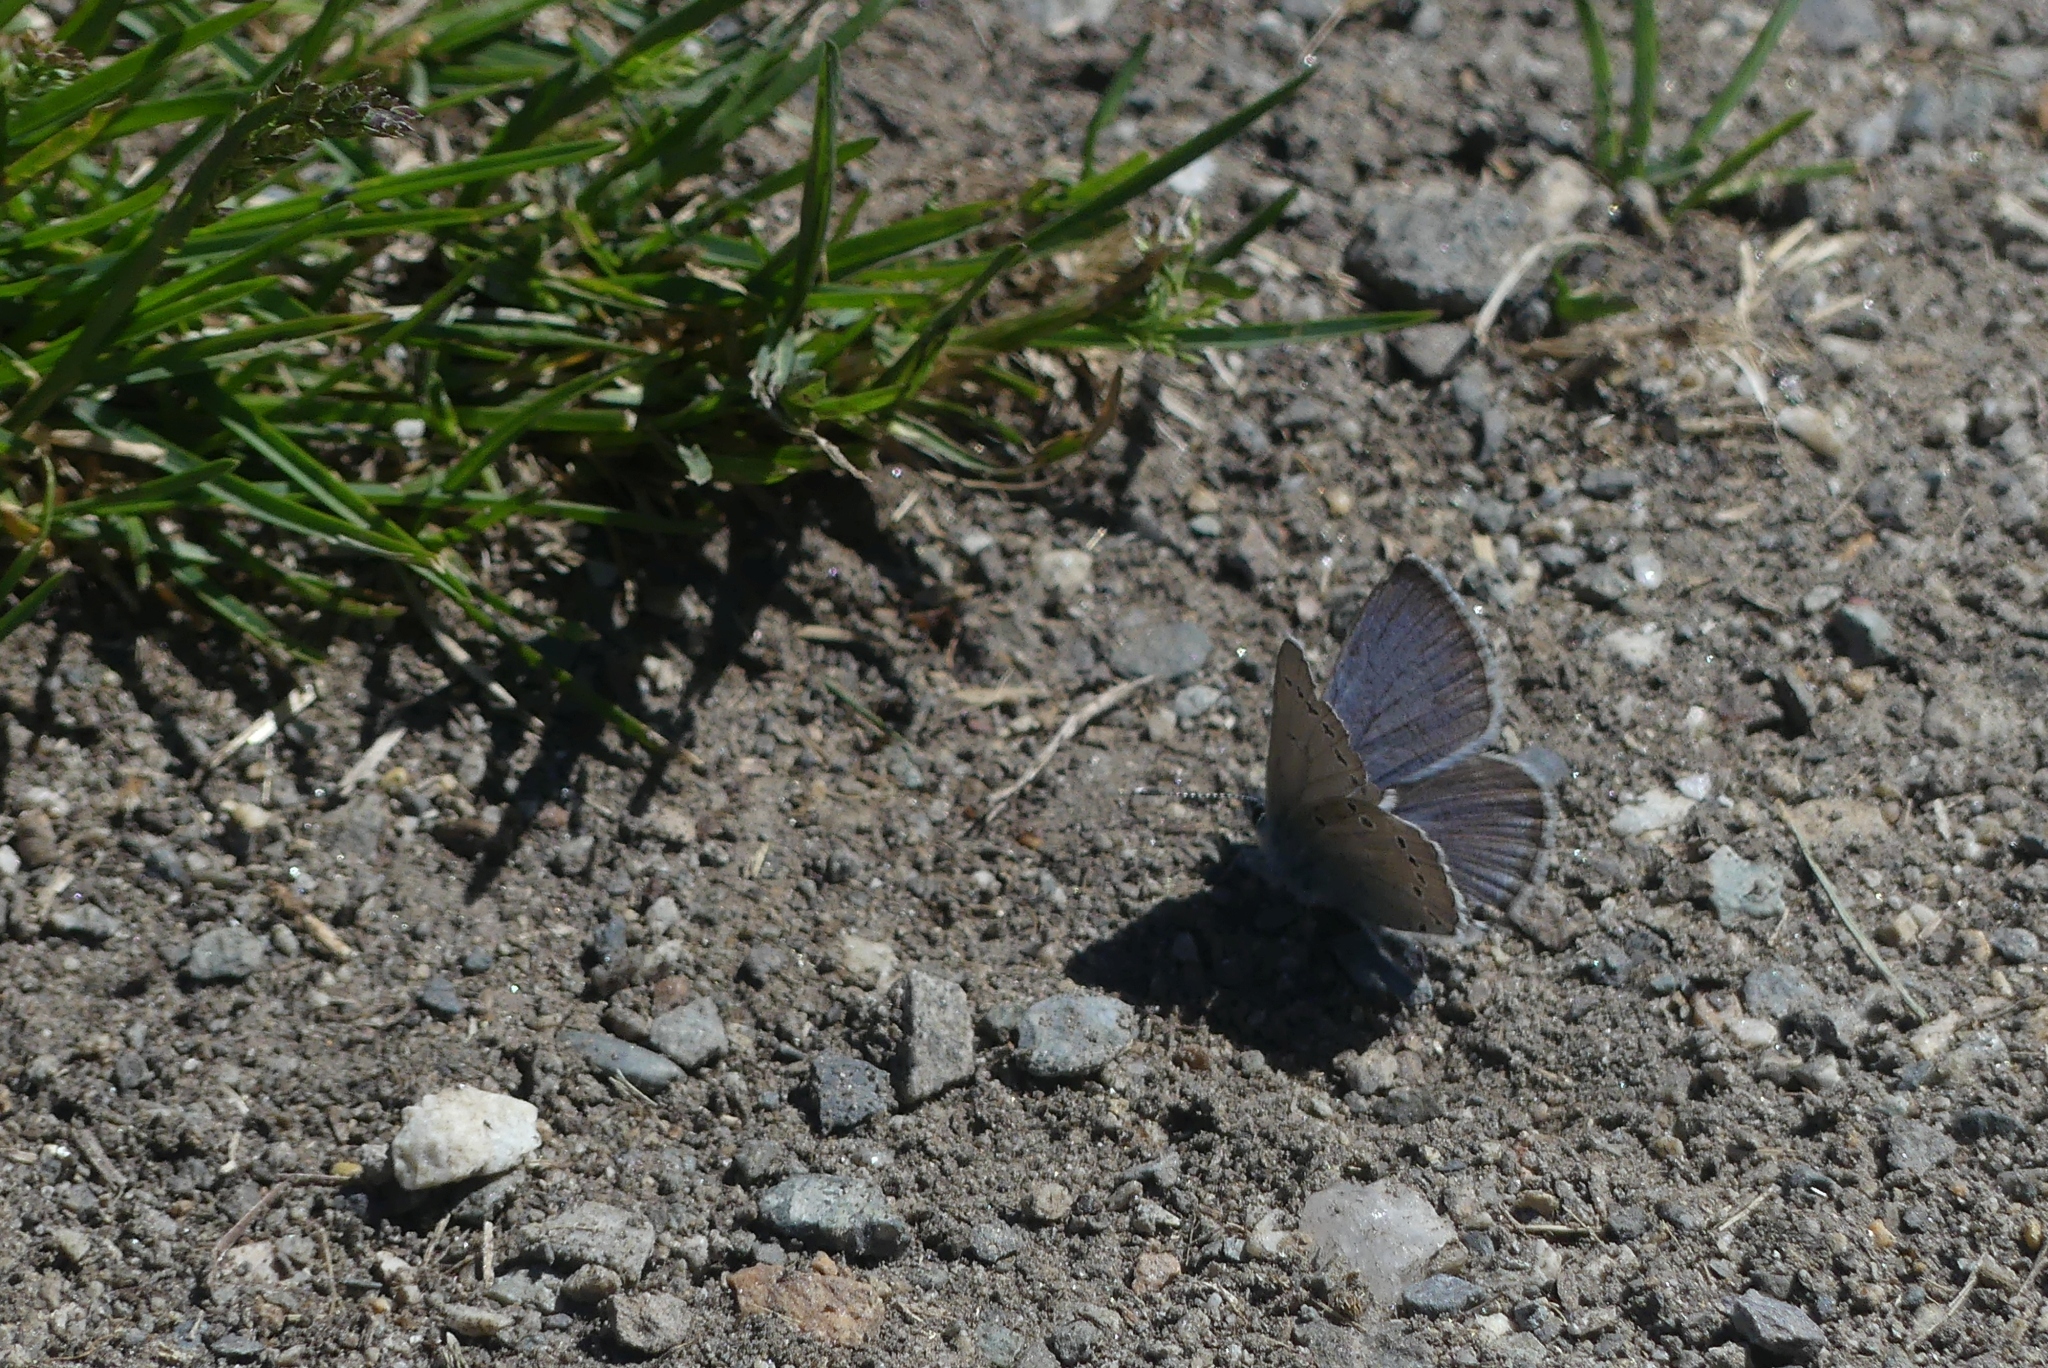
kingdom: Animalia
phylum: Arthropoda
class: Insecta
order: Lepidoptera
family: Lycaenidae
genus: Glaucopsyche
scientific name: Glaucopsyche lygdamus
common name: Silvery blue
